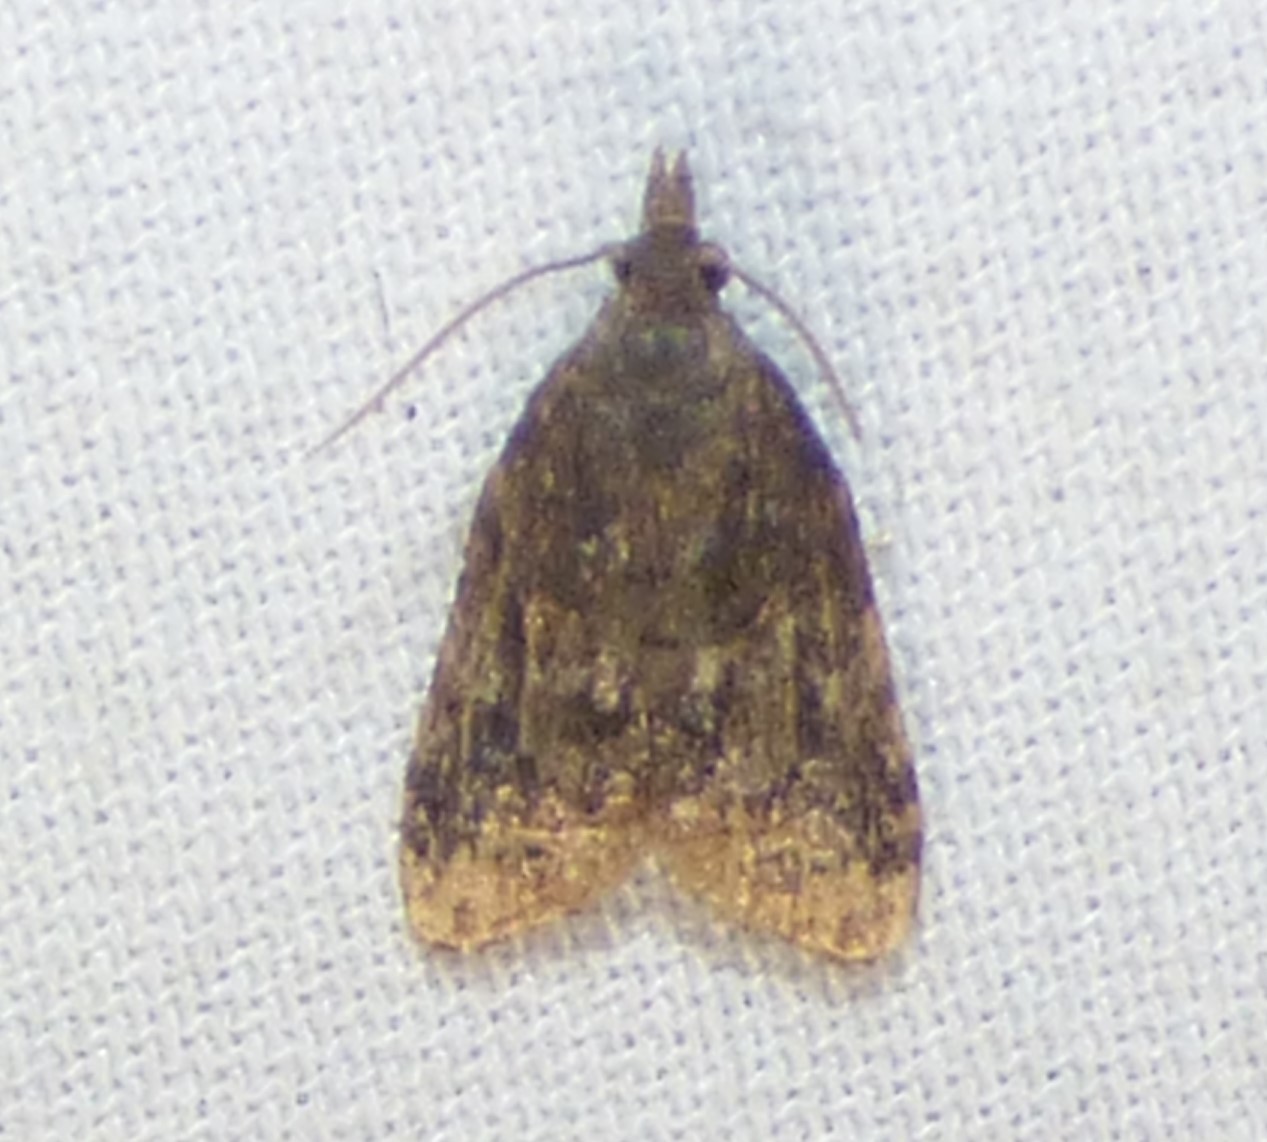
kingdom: Animalia
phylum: Arthropoda
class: Insecta
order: Lepidoptera
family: Tortricidae
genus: Platynota
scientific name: Platynota idaeusalis
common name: Tufted apple bud moth
